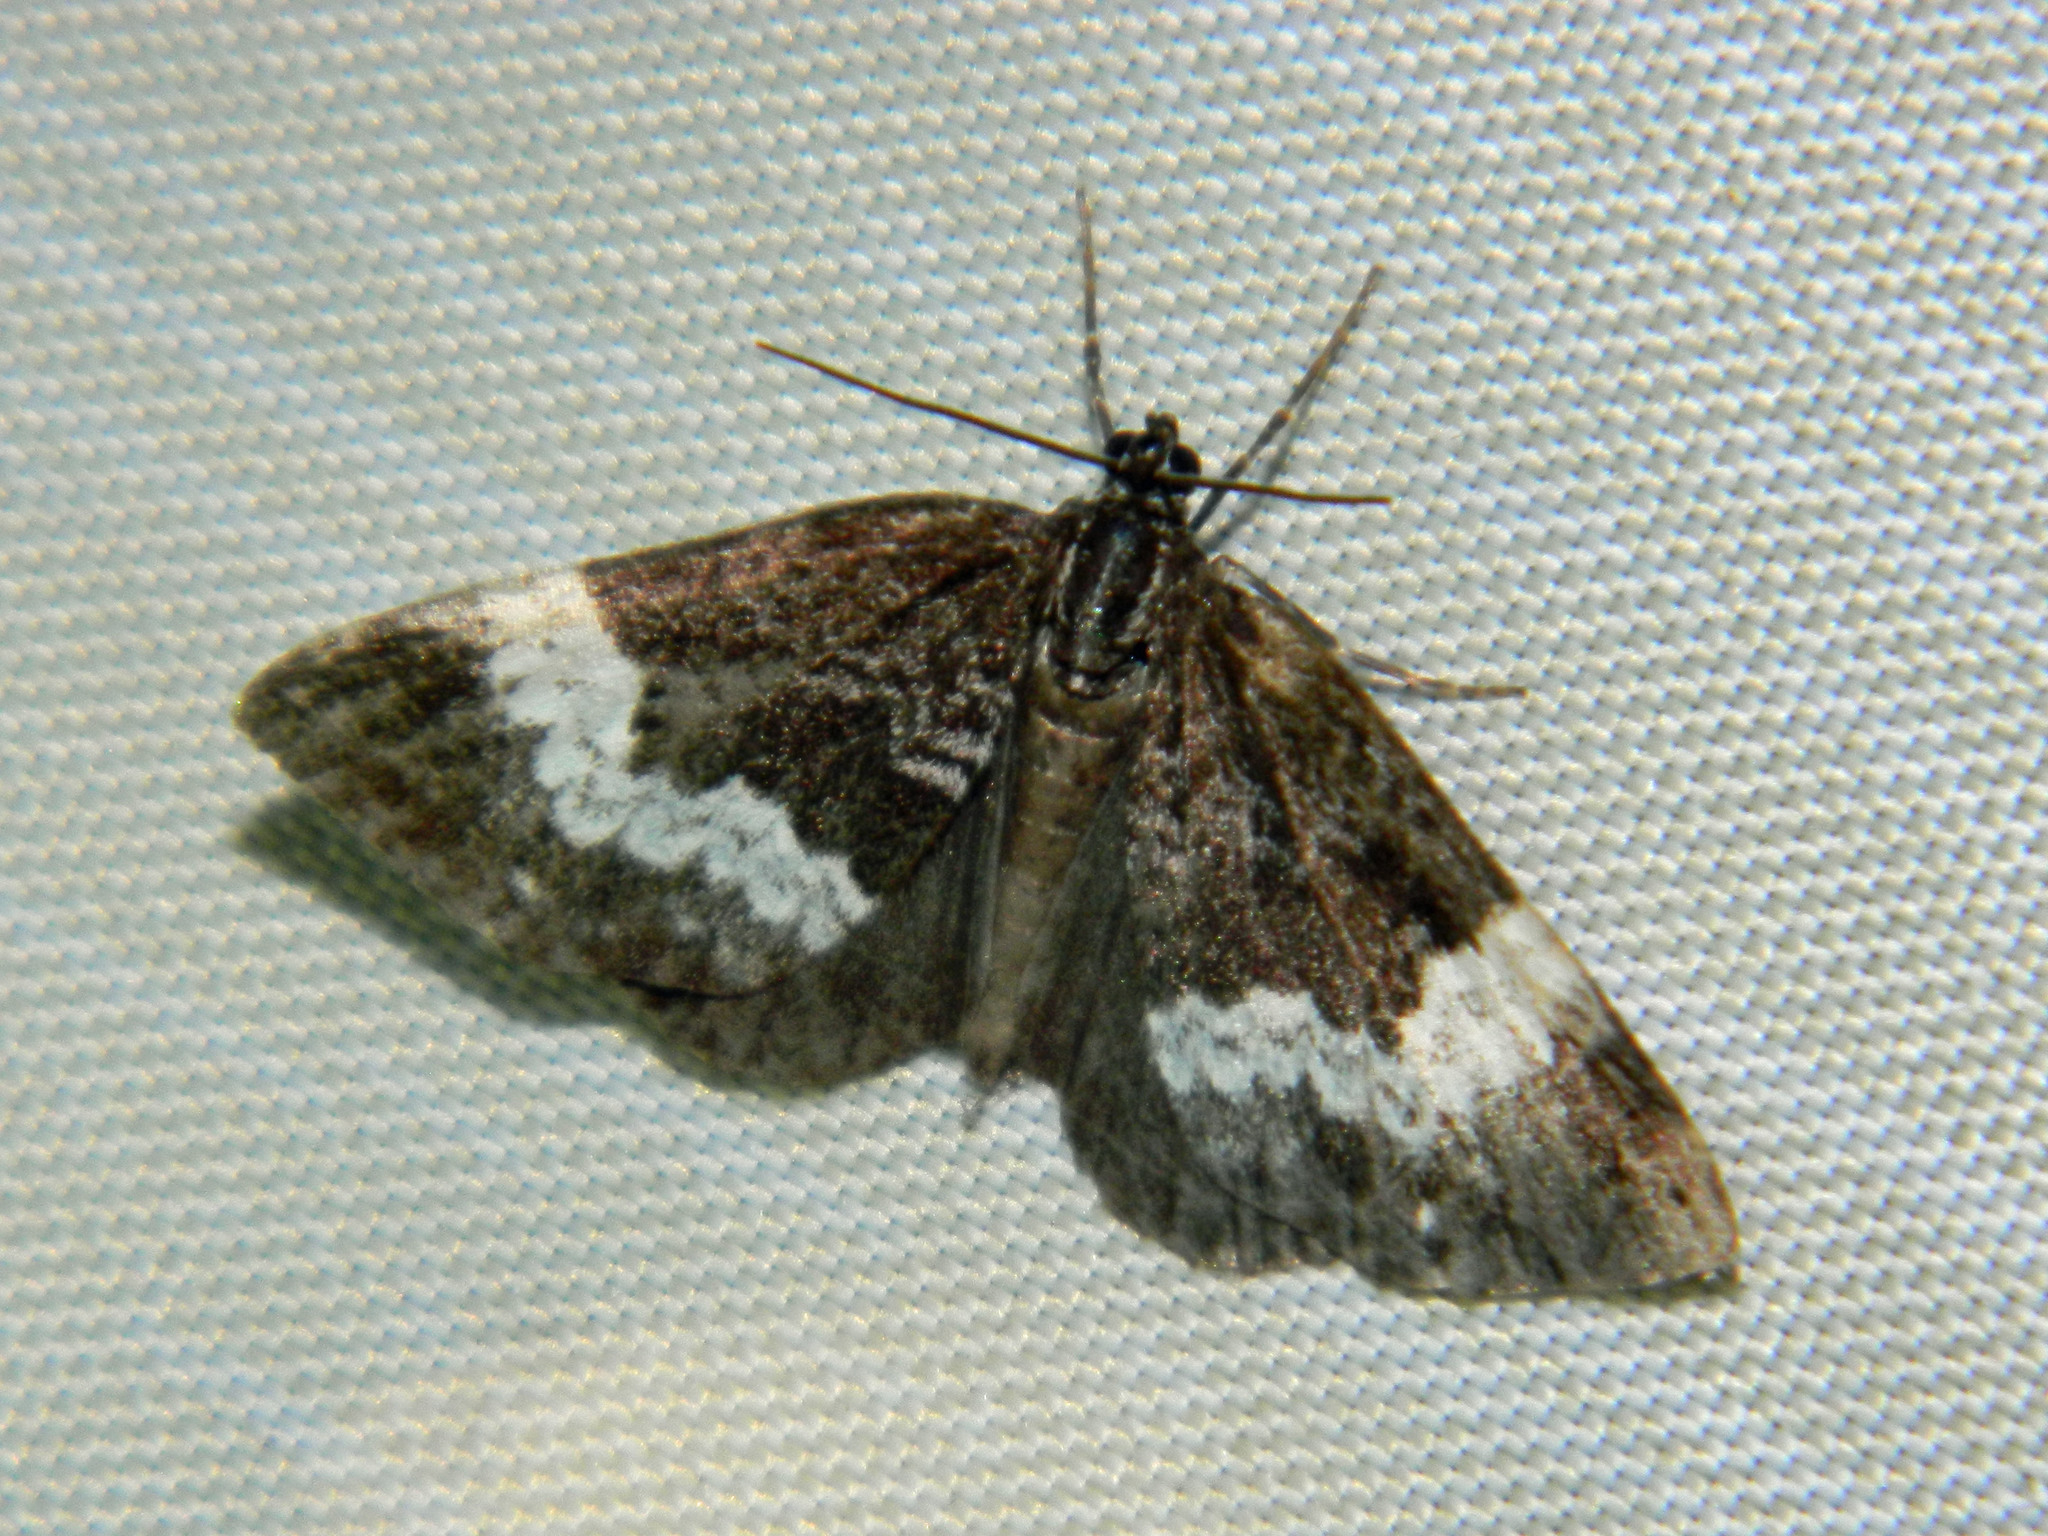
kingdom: Animalia
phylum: Arthropoda
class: Insecta
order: Lepidoptera
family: Geometridae
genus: Spargania
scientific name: Spargania luctuata
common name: White-banded carpet
